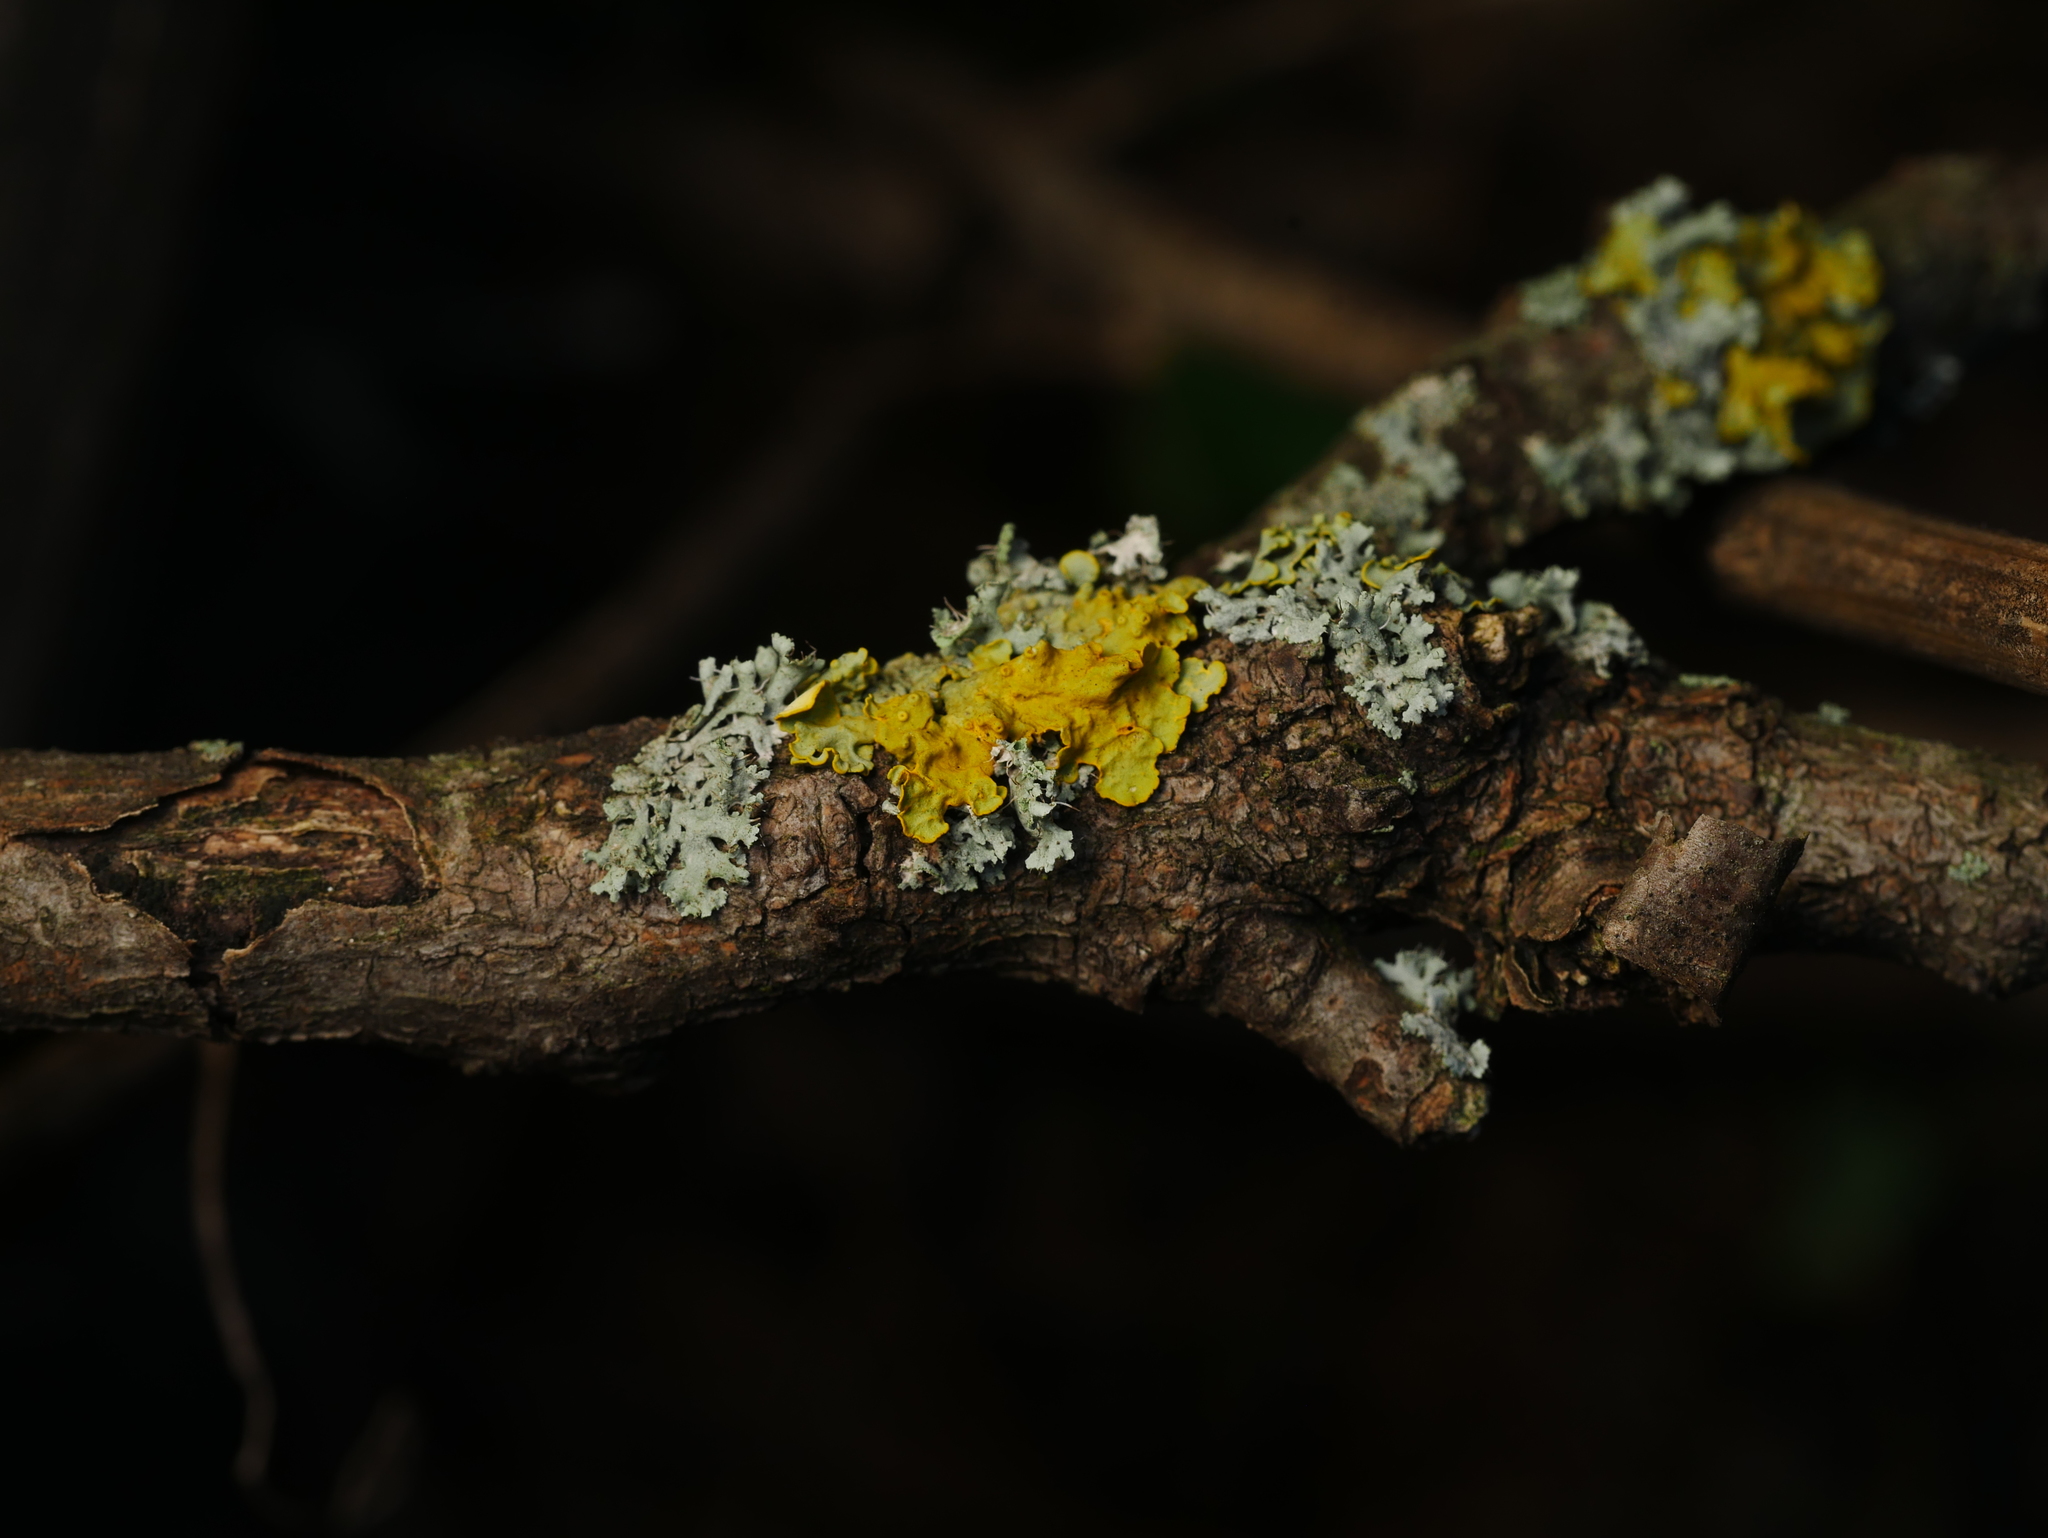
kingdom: Fungi
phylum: Ascomycota
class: Lecanoromycetes
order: Teloschistales
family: Teloschistaceae
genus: Xanthoria
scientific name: Xanthoria parietina
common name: Common orange lichen
